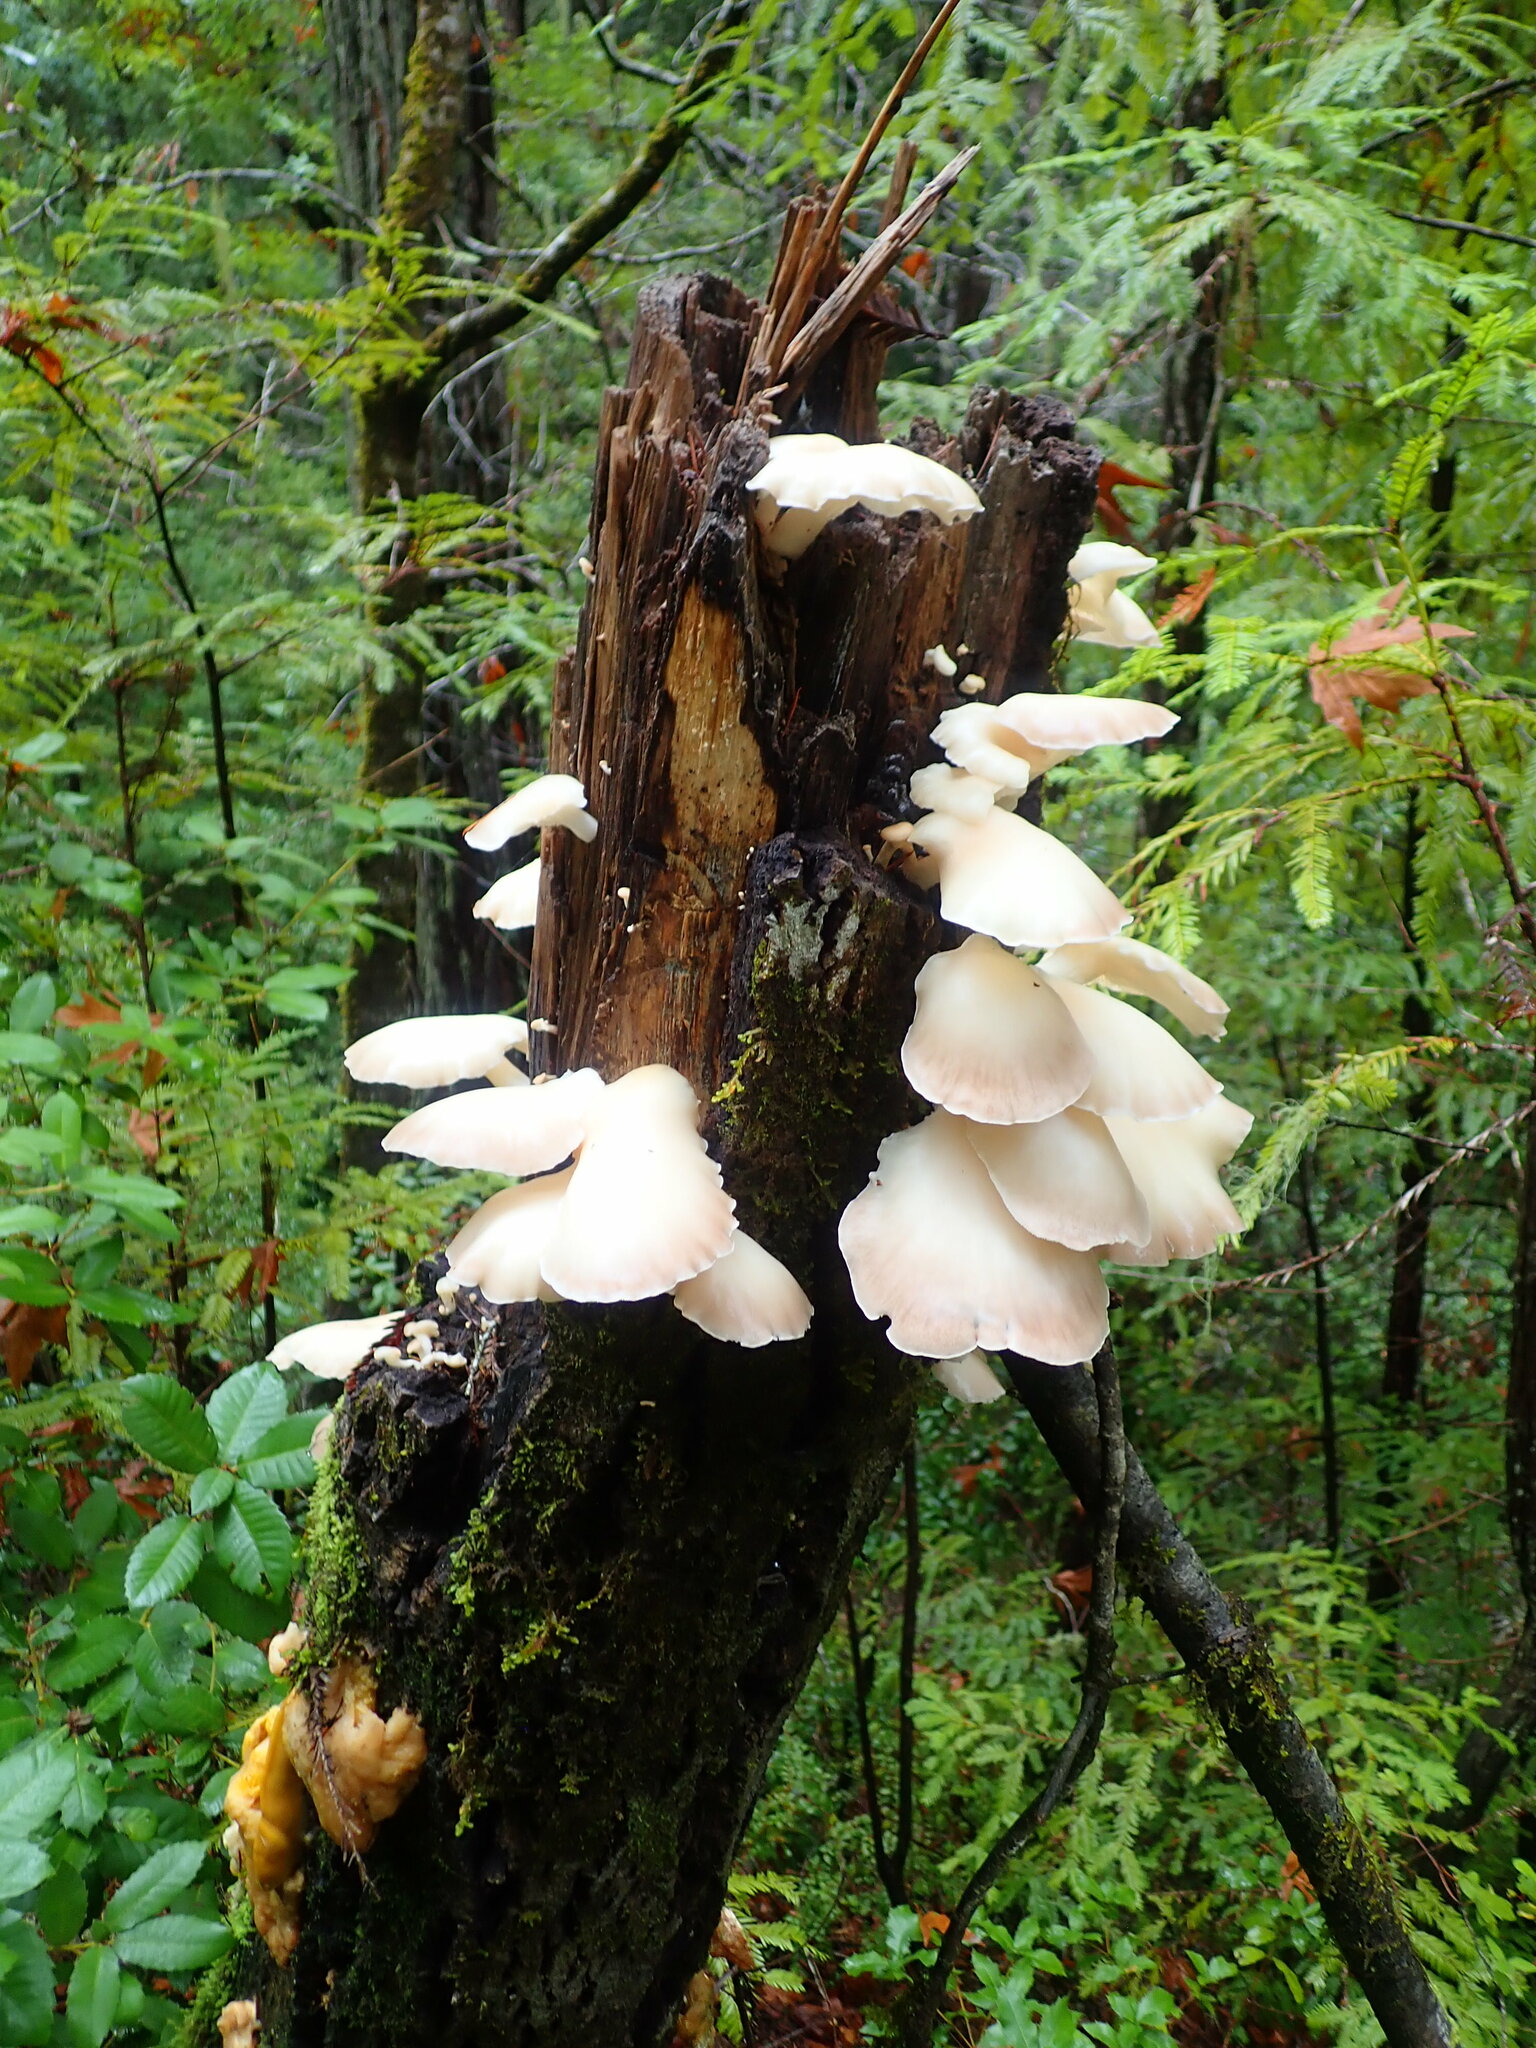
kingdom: Fungi
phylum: Basidiomycota
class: Agaricomycetes
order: Agaricales
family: Pleurotaceae
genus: Pleurotus
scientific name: Pleurotus pulmonarius
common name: Pale oyster
